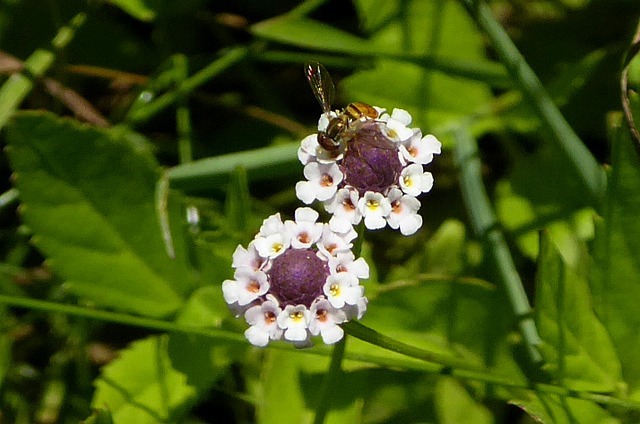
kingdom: Plantae
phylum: Tracheophyta
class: Magnoliopsida
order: Lamiales
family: Verbenaceae
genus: Phyla
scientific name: Phyla lanceolata
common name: Northern fogfruit
